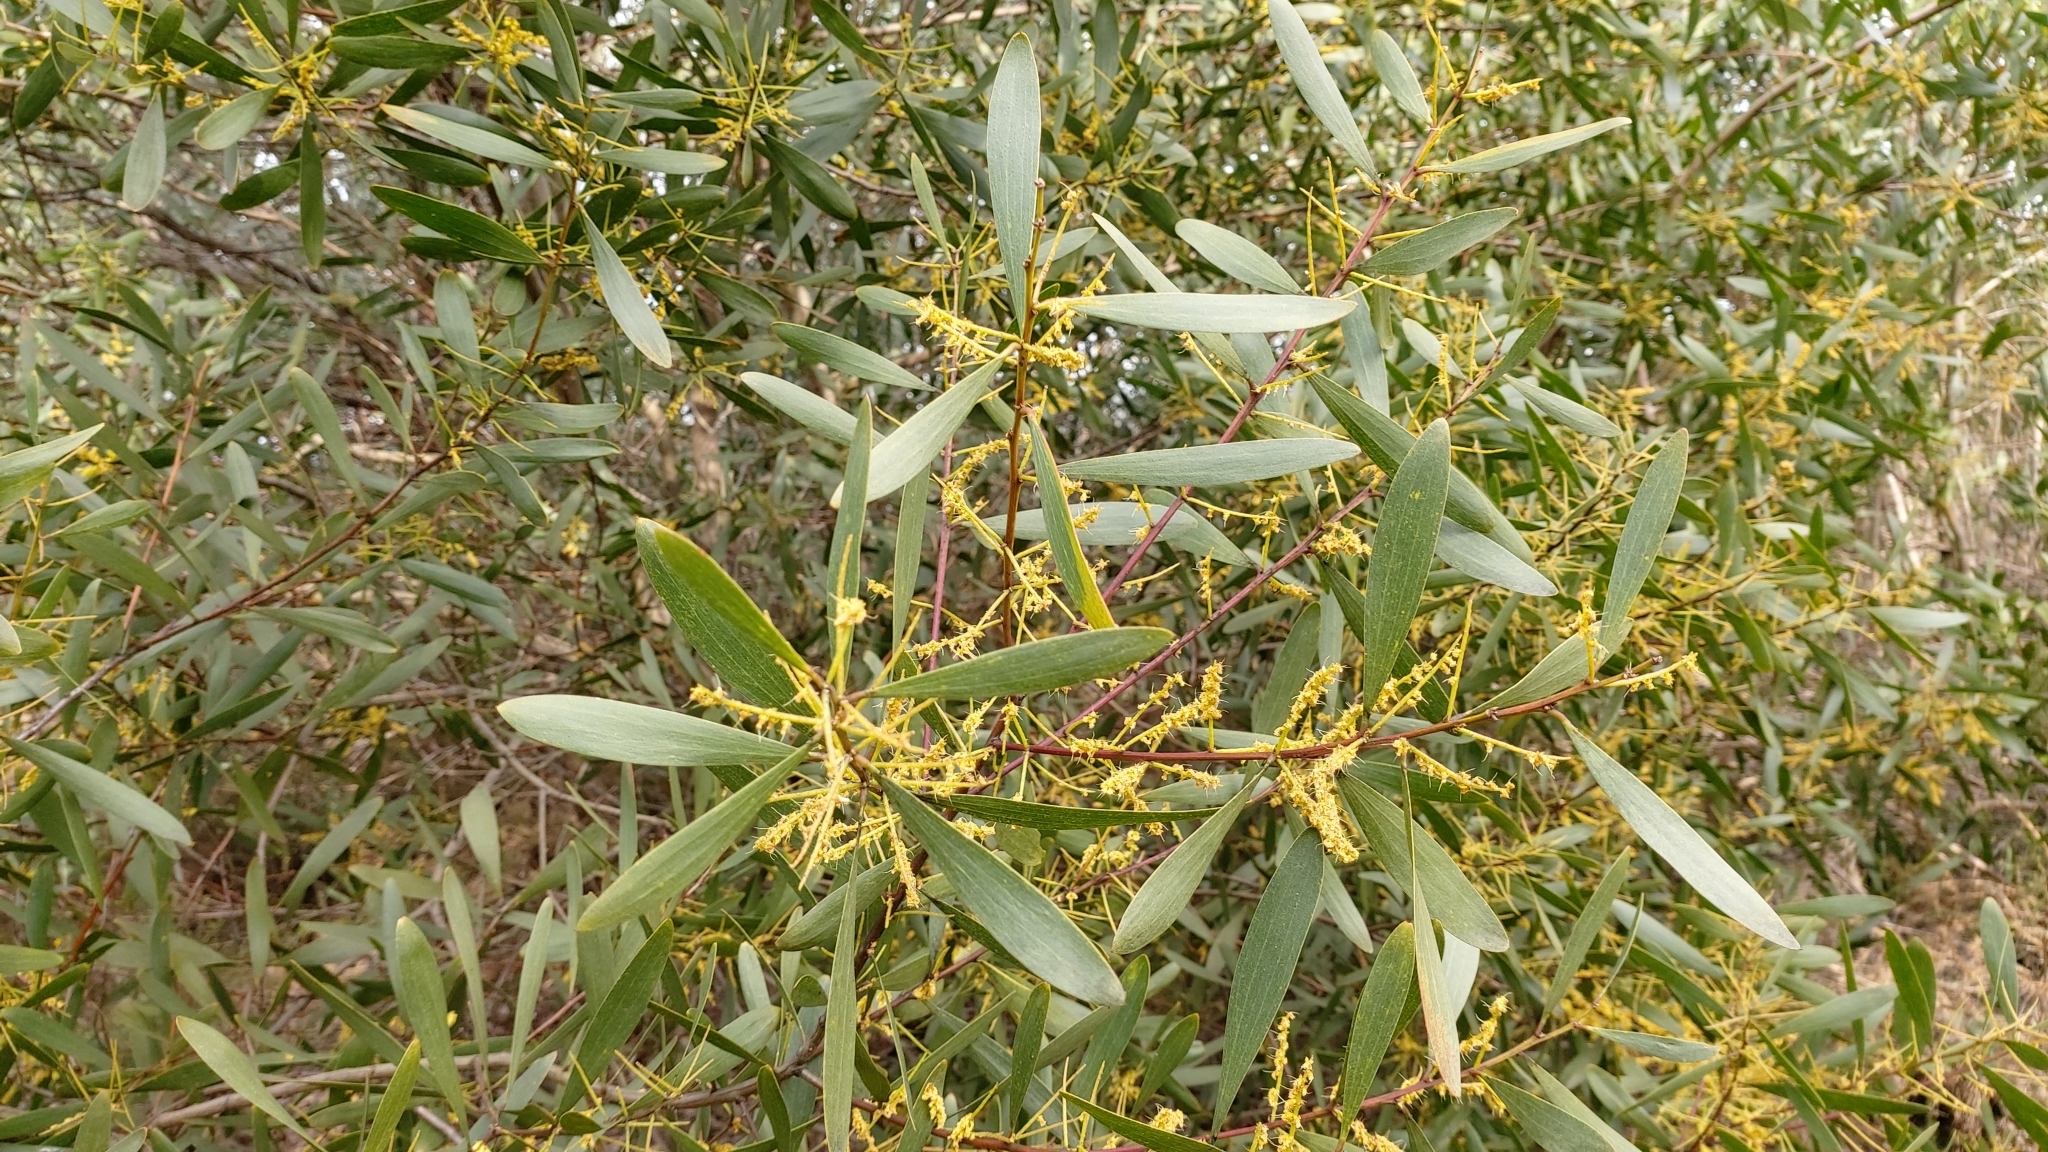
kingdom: Plantae
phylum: Tracheophyta
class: Magnoliopsida
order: Fabales
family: Fabaceae
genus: Acacia
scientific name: Acacia longifolia
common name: Sydney golden wattle
